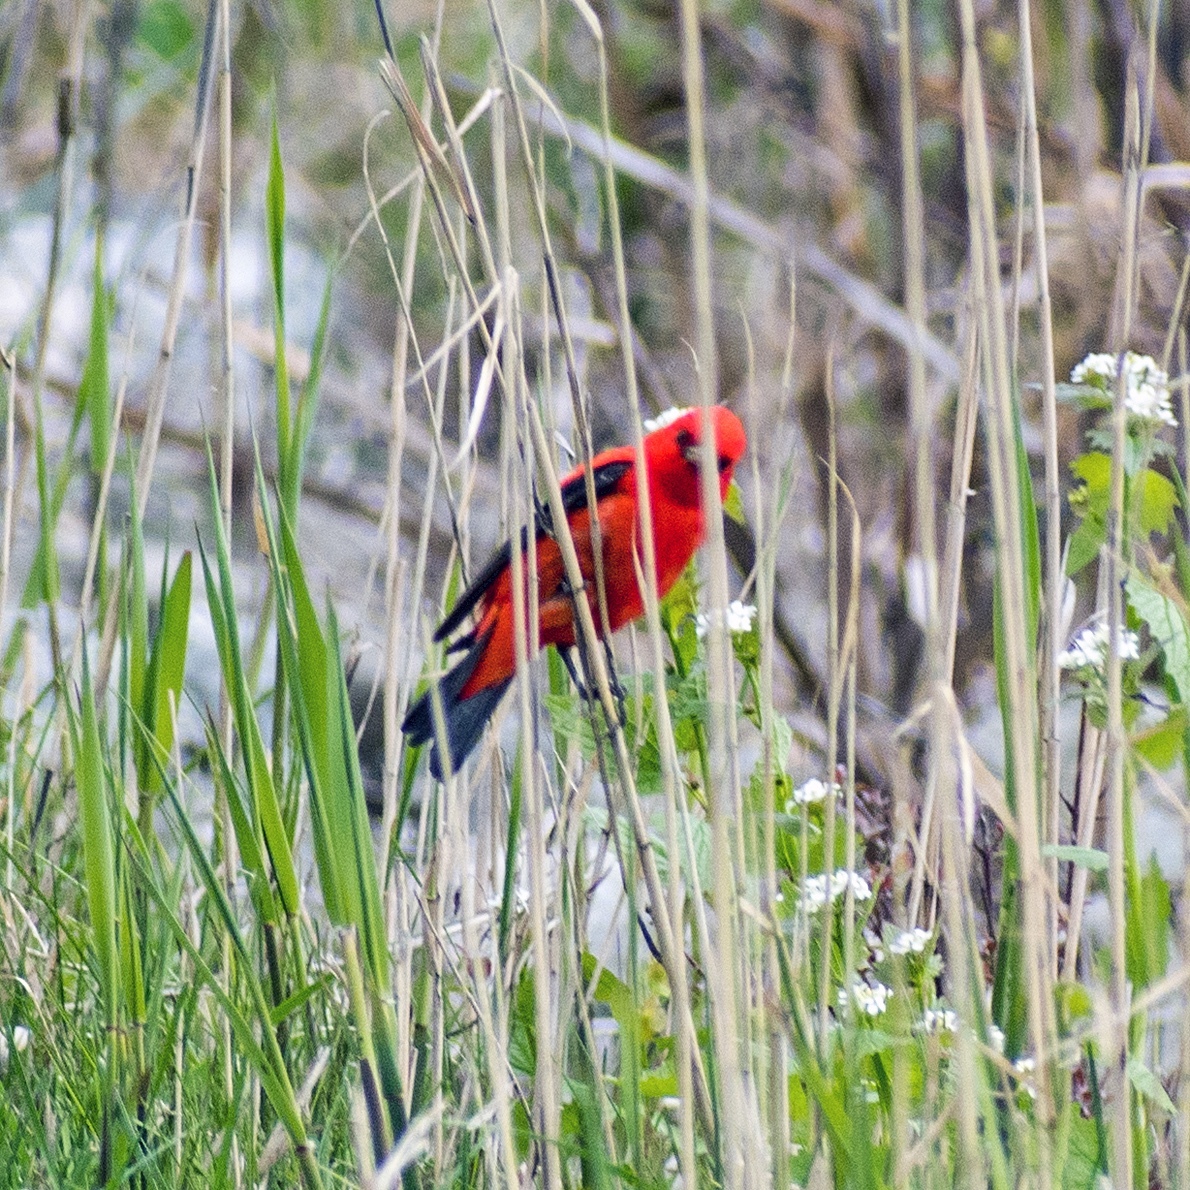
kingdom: Animalia
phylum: Chordata
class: Aves
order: Passeriformes
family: Cardinalidae
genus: Piranga
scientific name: Piranga olivacea
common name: Scarlet tanager
